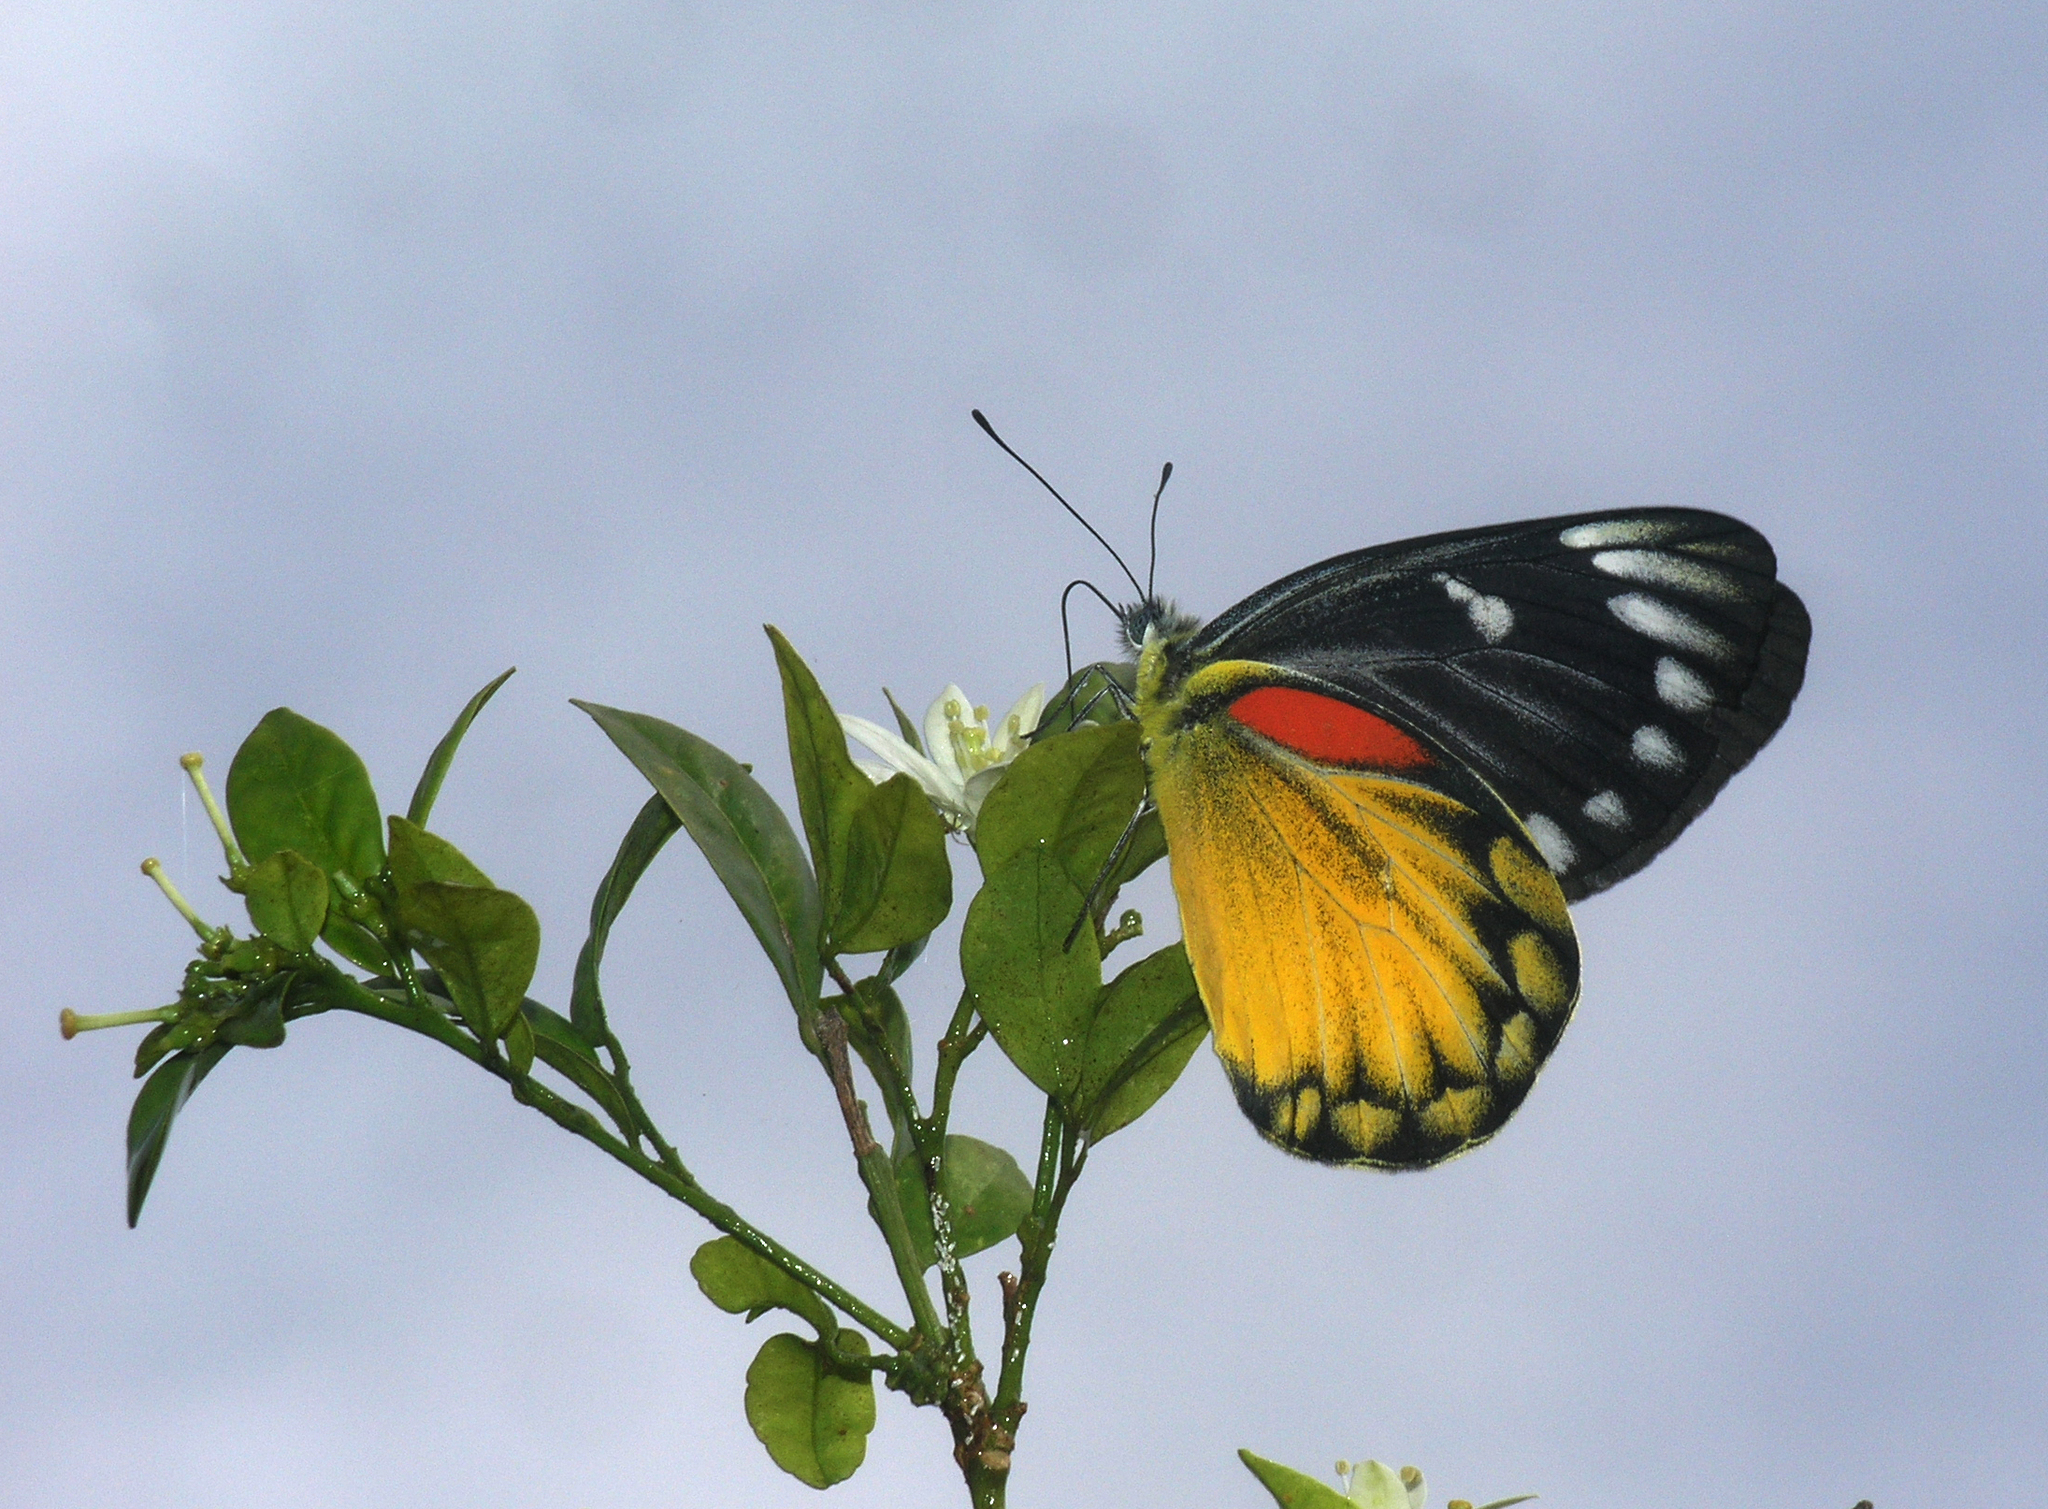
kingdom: Animalia
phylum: Arthropoda
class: Insecta
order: Lepidoptera
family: Pieridae
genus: Delias
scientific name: Delias descombesi
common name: Red-spot jezebel
